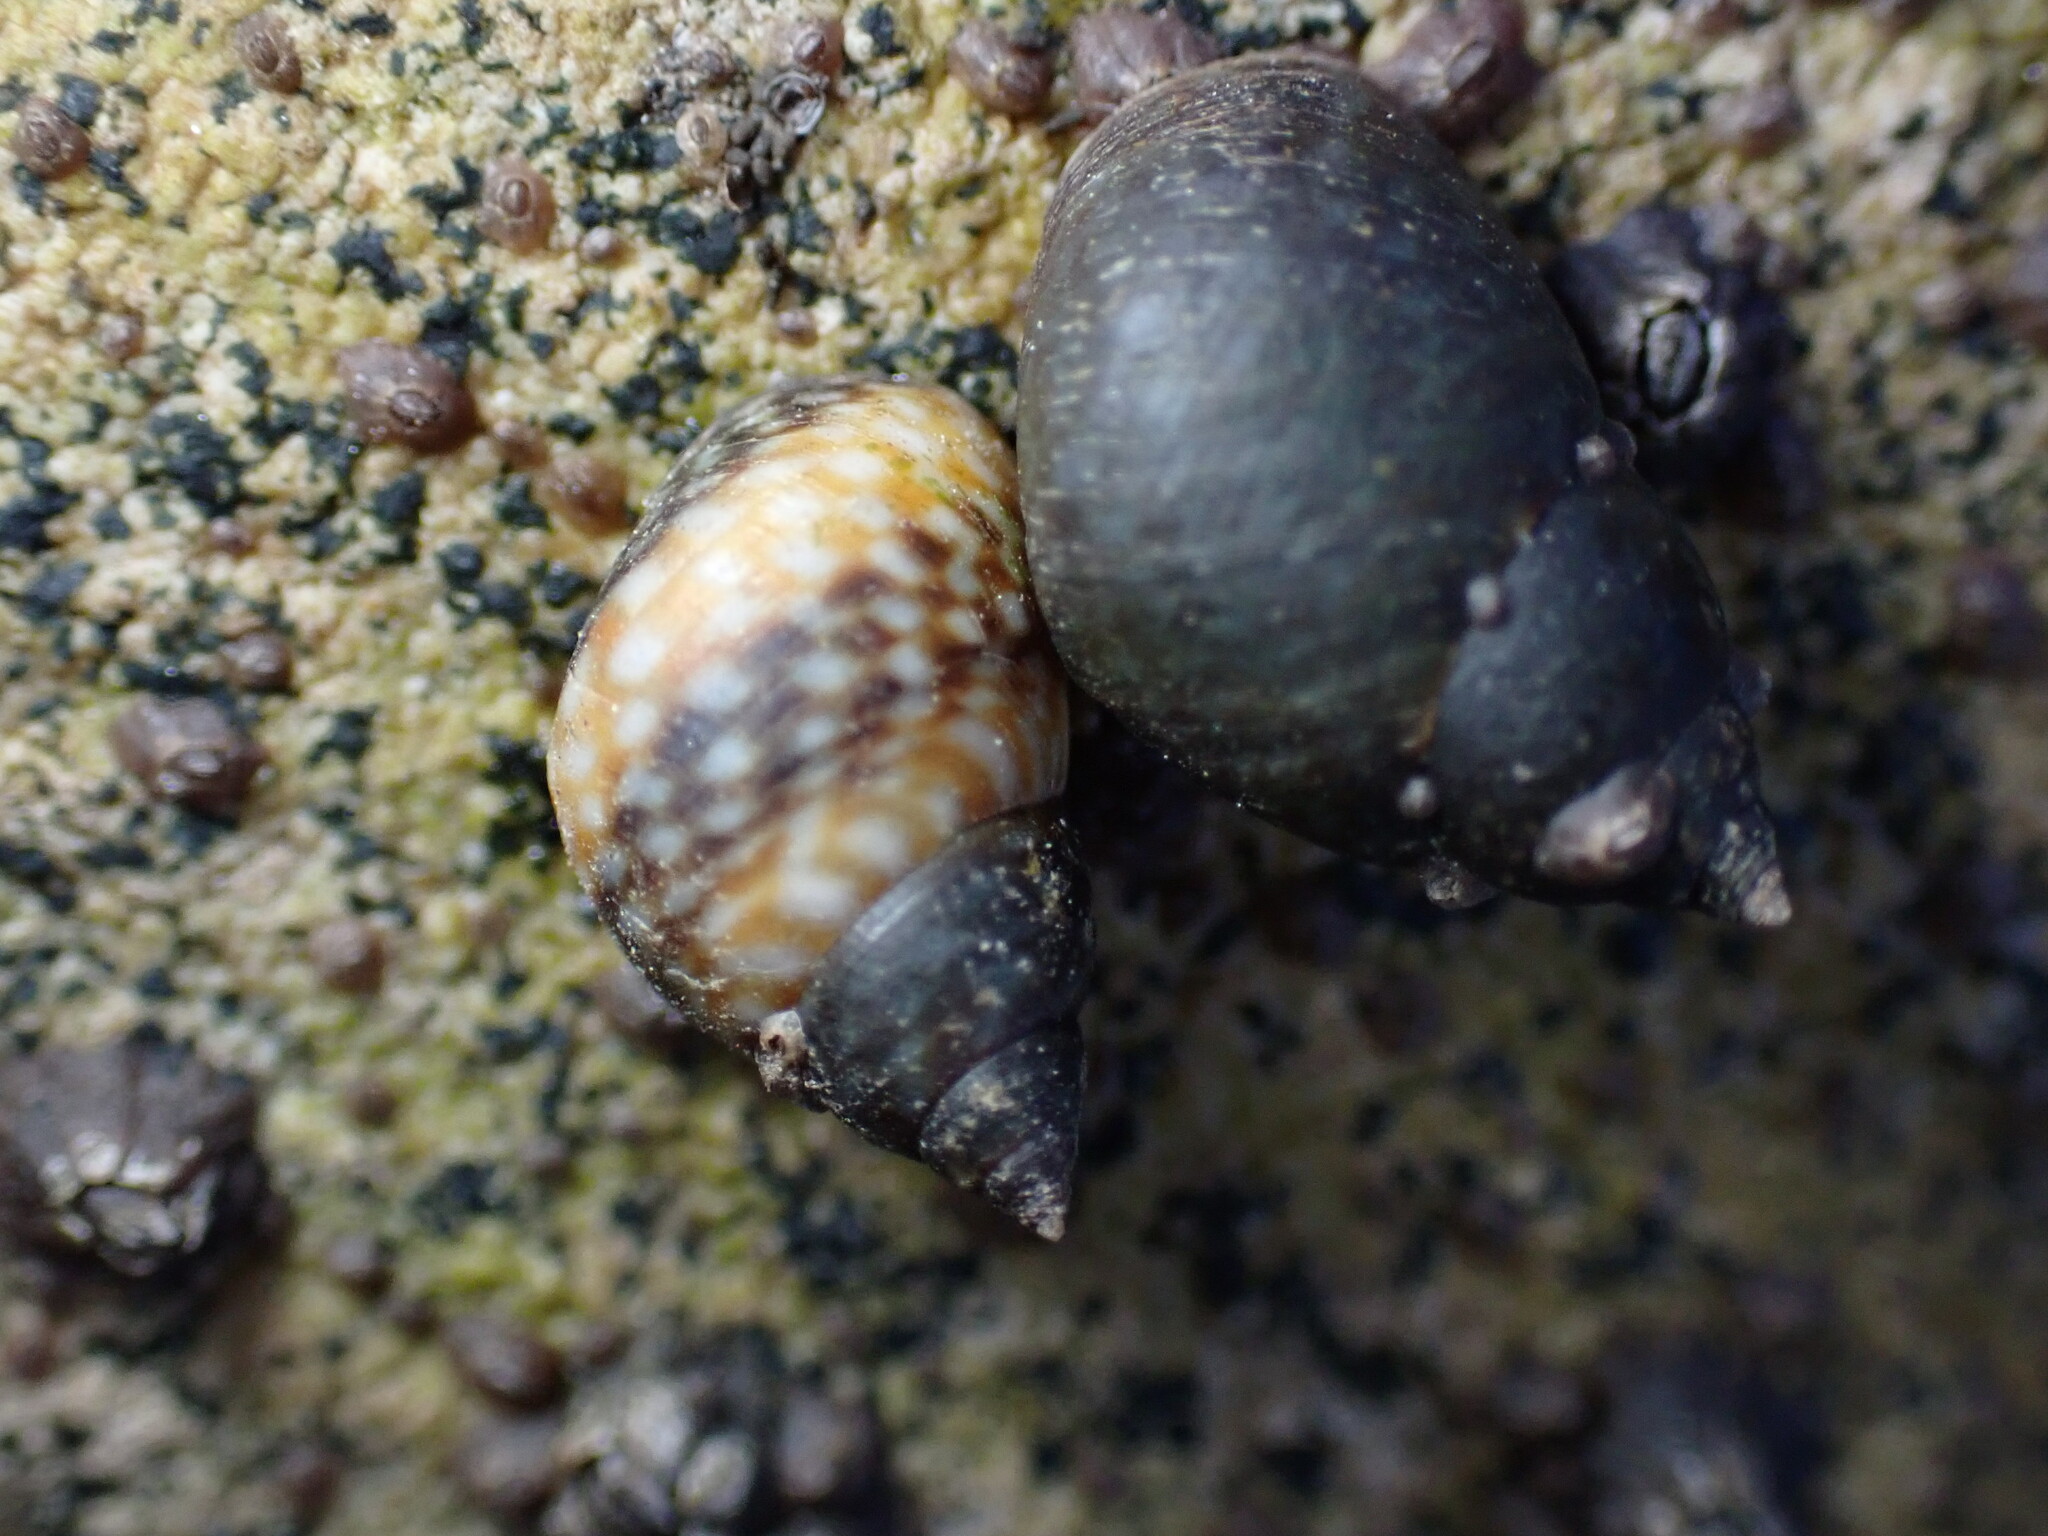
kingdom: Animalia
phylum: Mollusca
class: Gastropoda
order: Littorinimorpha
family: Littorinidae
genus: Littorina
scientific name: Littorina scutulata
